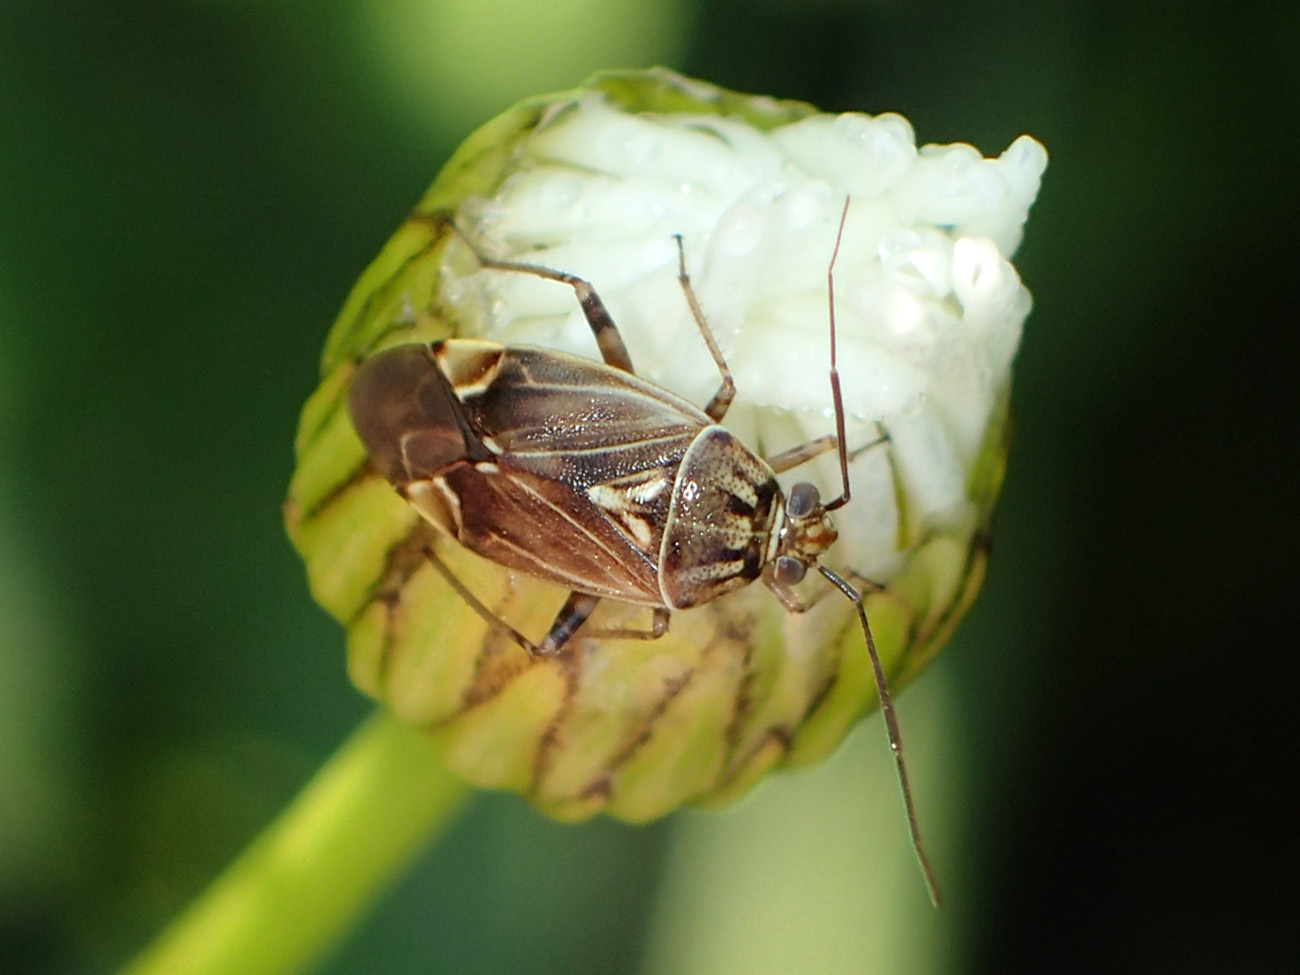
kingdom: Animalia
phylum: Arthropoda
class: Insecta
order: Hemiptera
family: Miridae
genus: Lygus
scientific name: Lygus lineolaris
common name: North american tarnished plant bug
